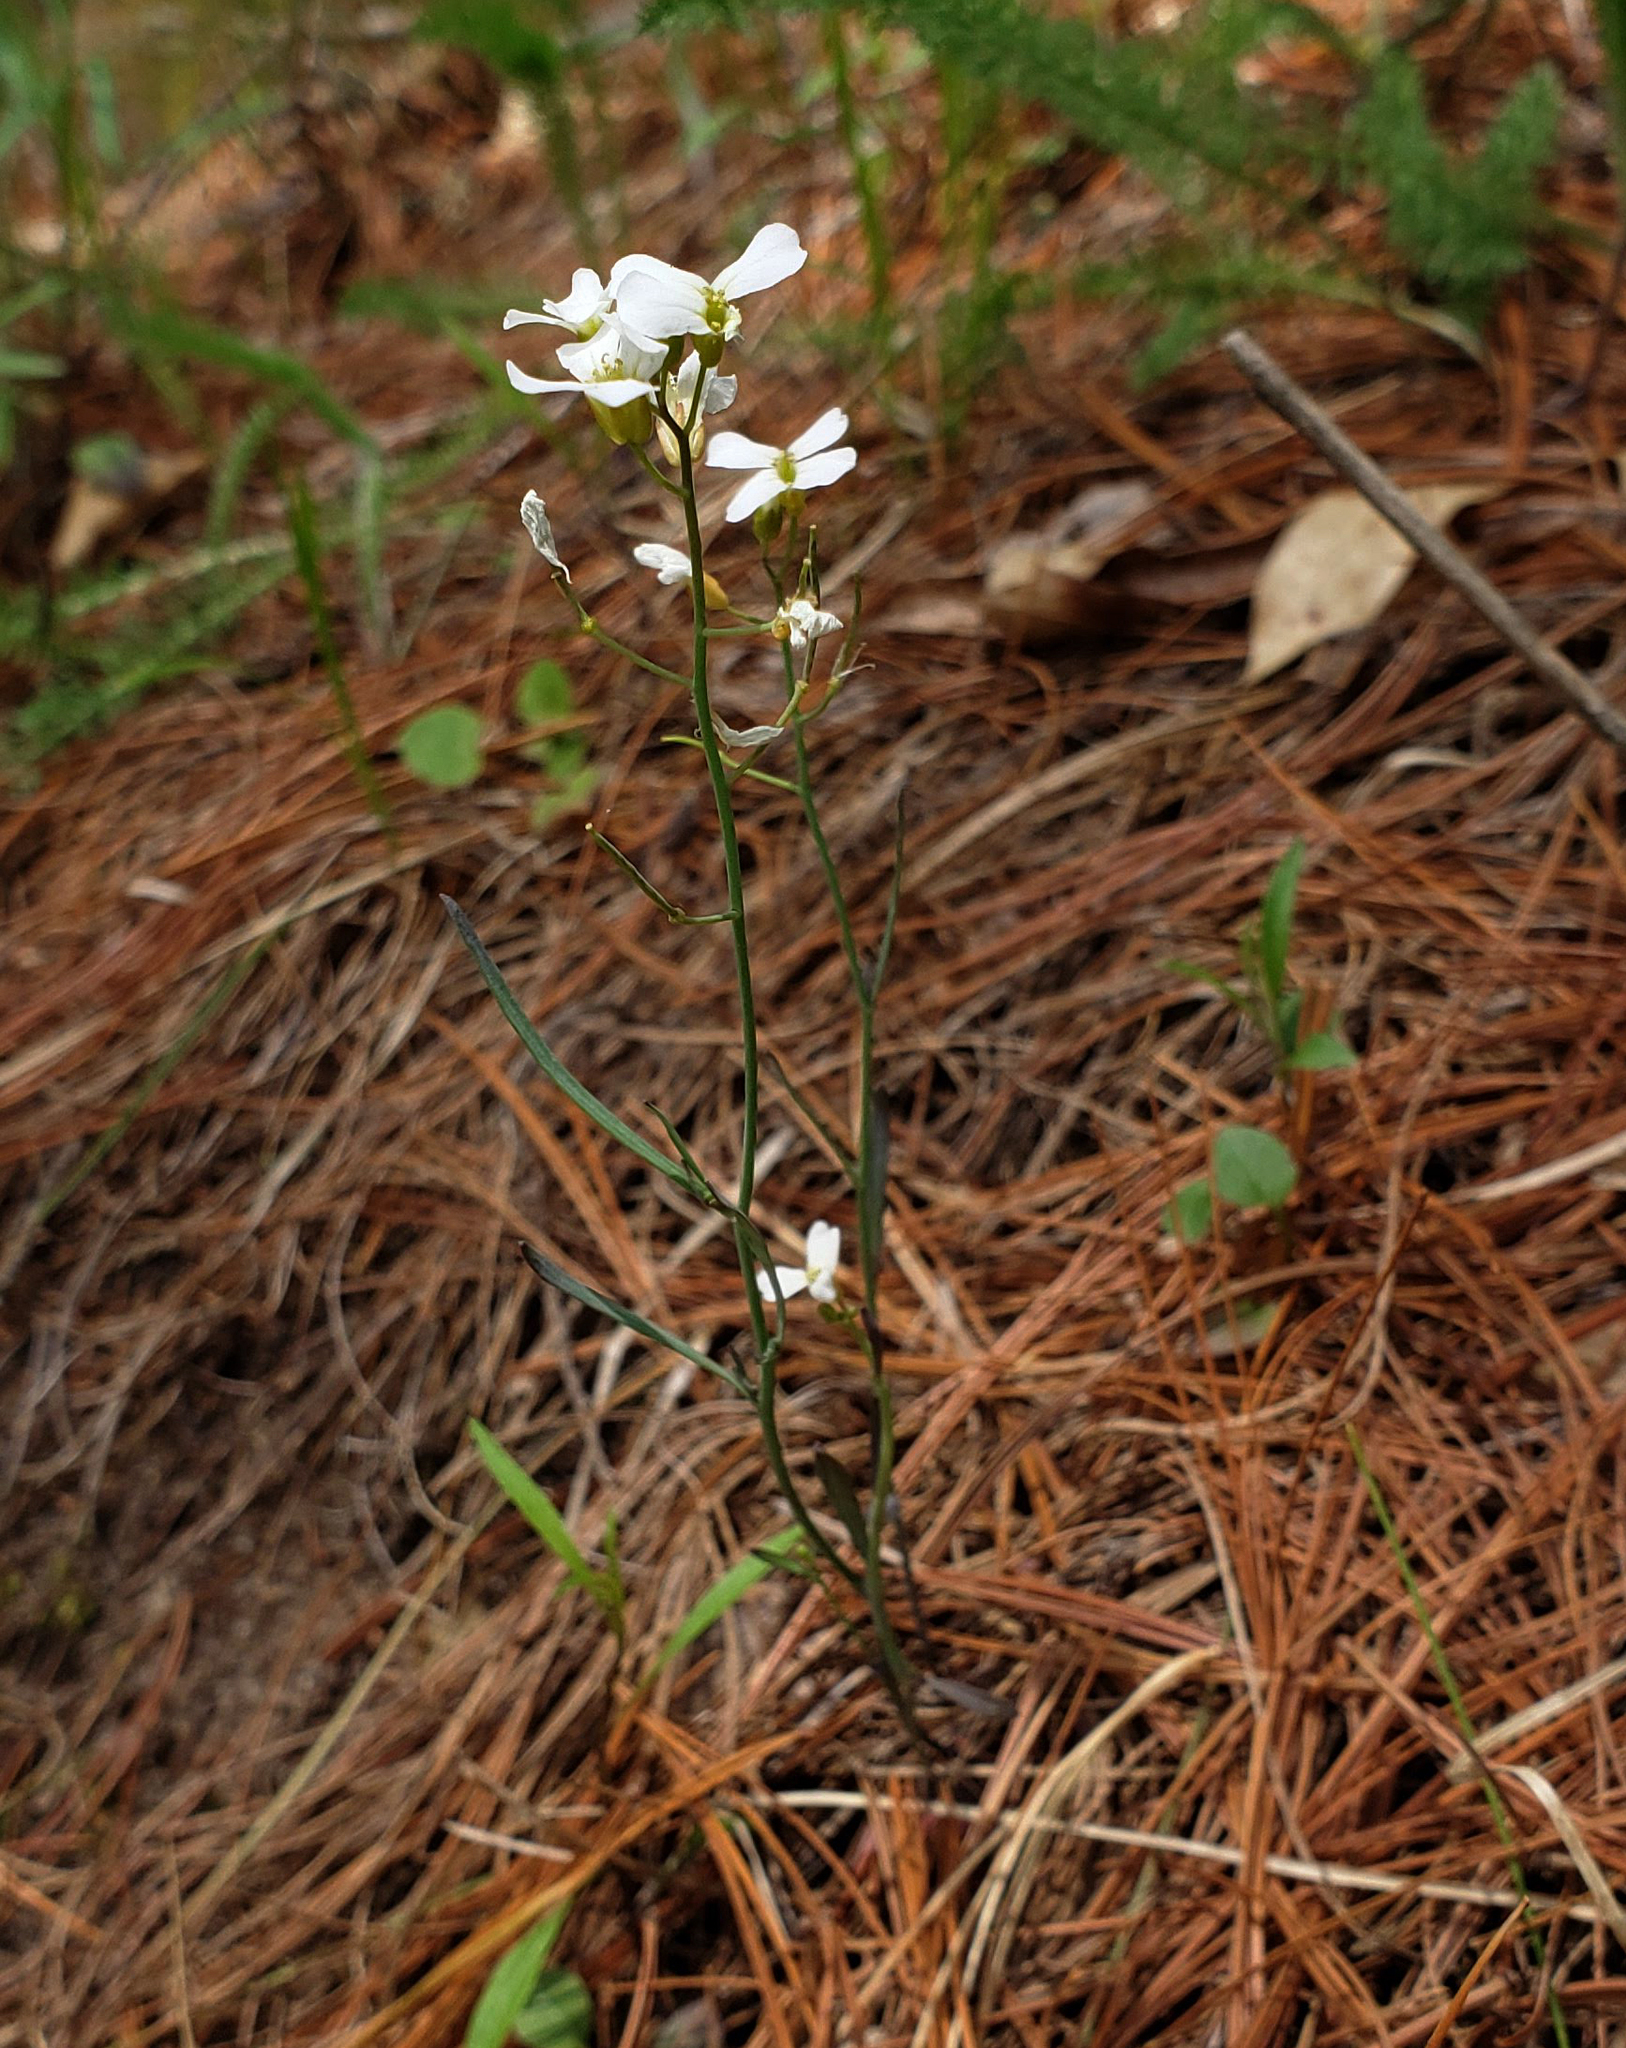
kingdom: Plantae
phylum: Tracheophyta
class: Magnoliopsida
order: Brassicales
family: Brassicaceae
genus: Arabidopsis
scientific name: Arabidopsis lyrata
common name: Lyrate rockcress
